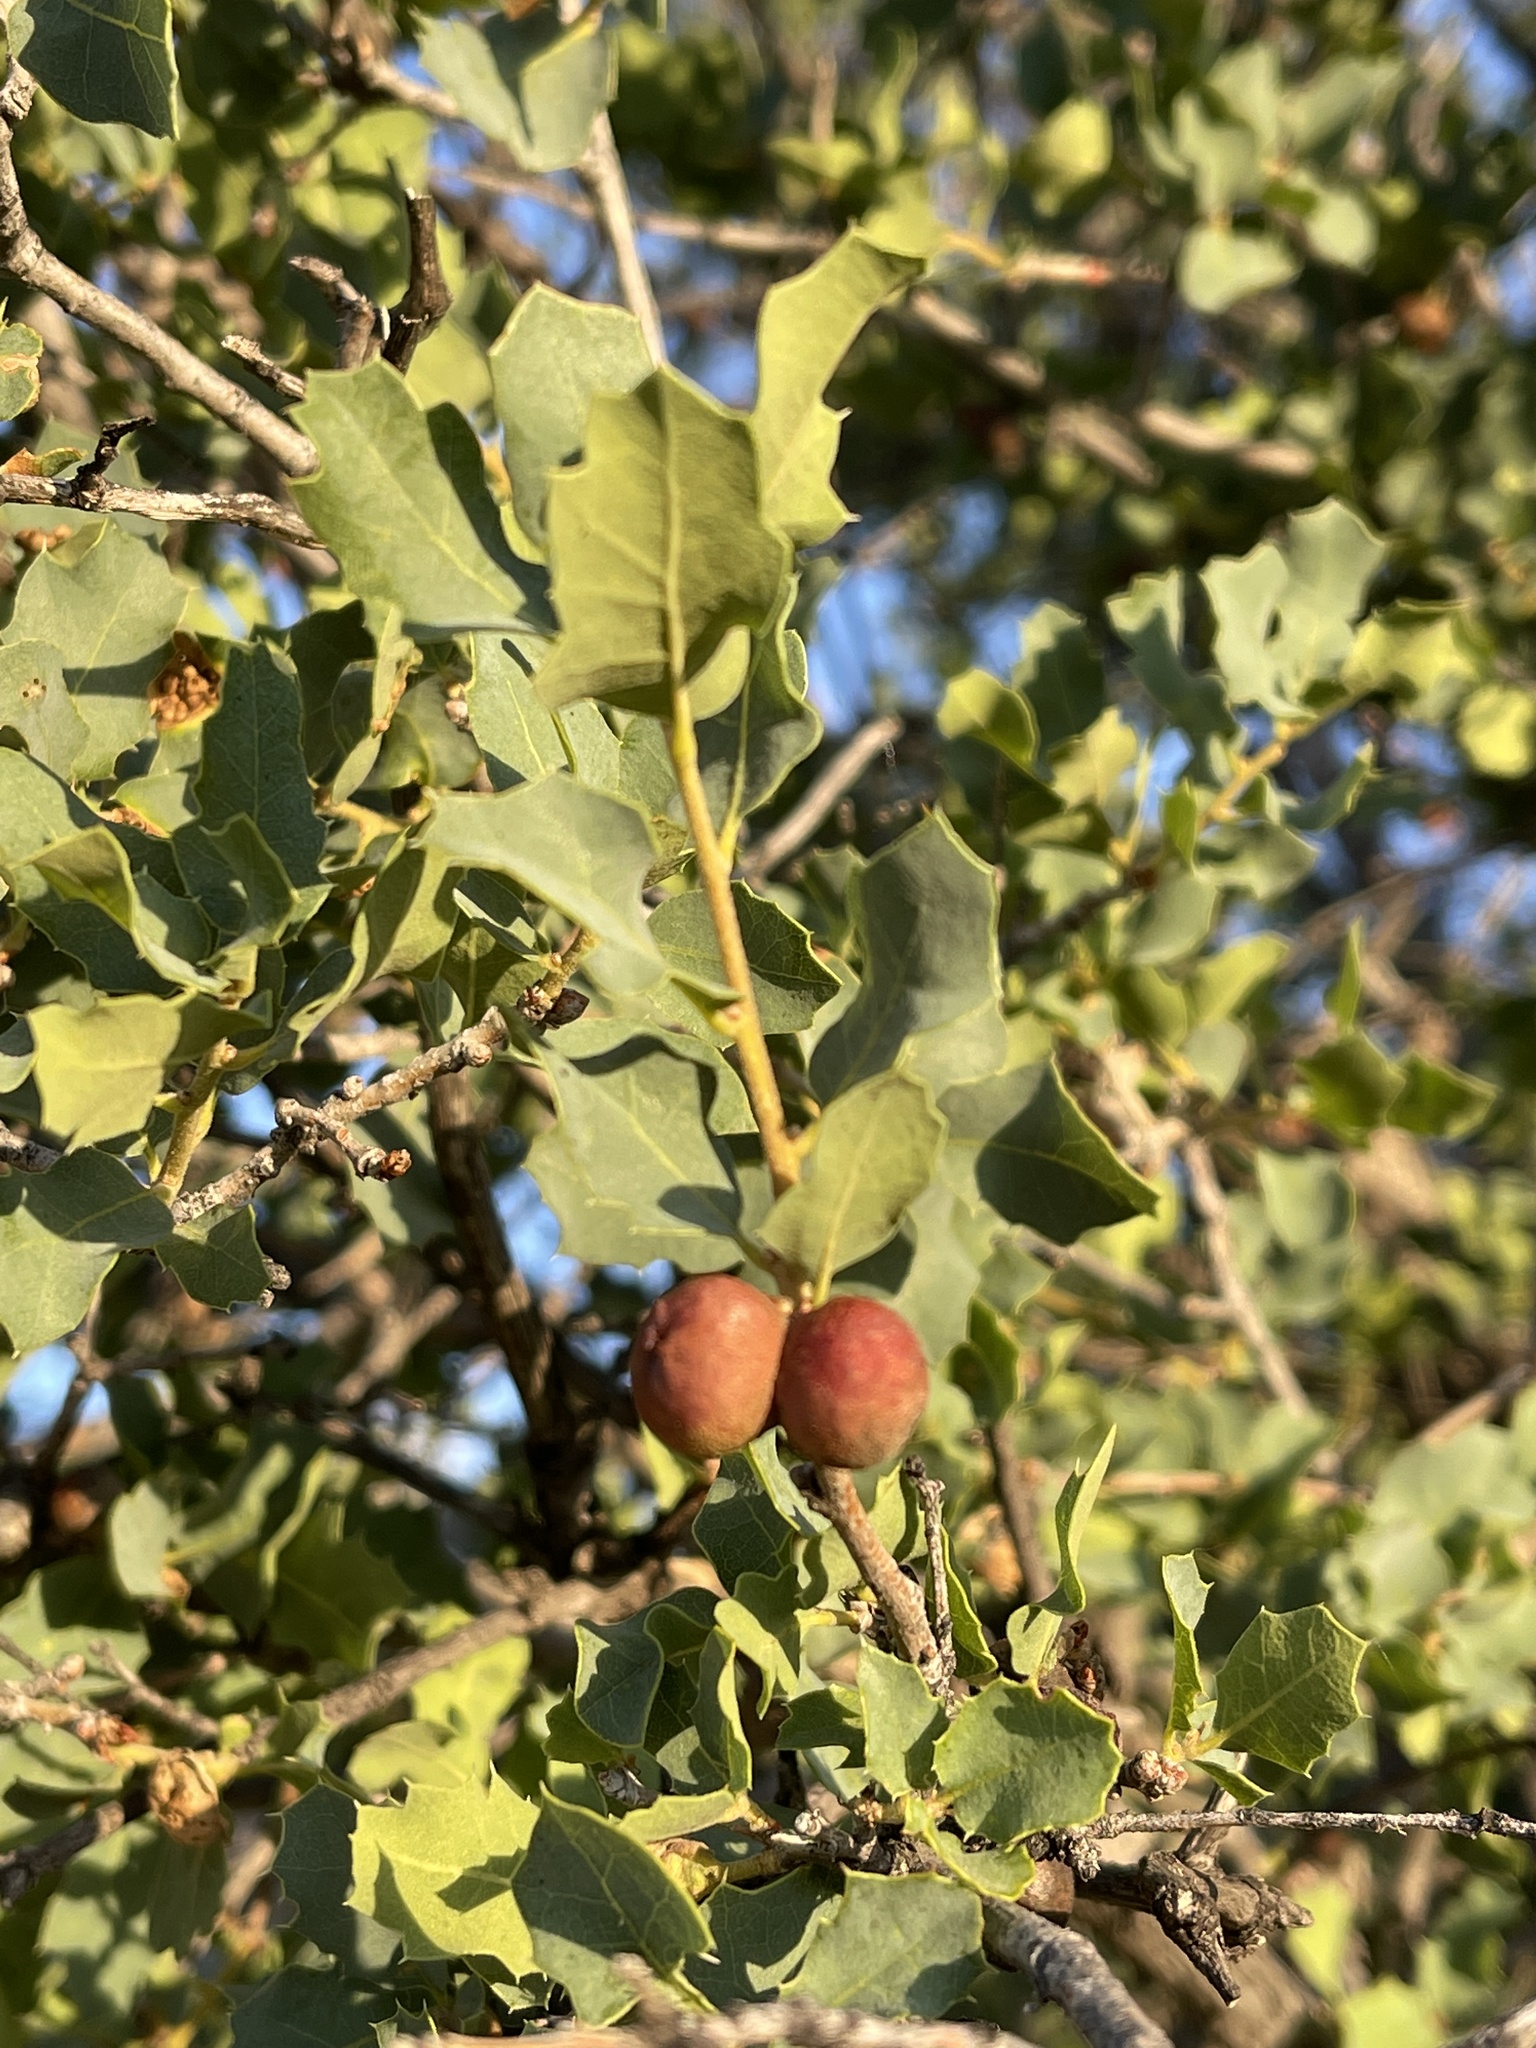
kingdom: Plantae
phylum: Tracheophyta
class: Magnoliopsida
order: Fagales
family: Fagaceae
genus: Quercus
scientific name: Quercus john-tuckeri
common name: Tucker's oak
